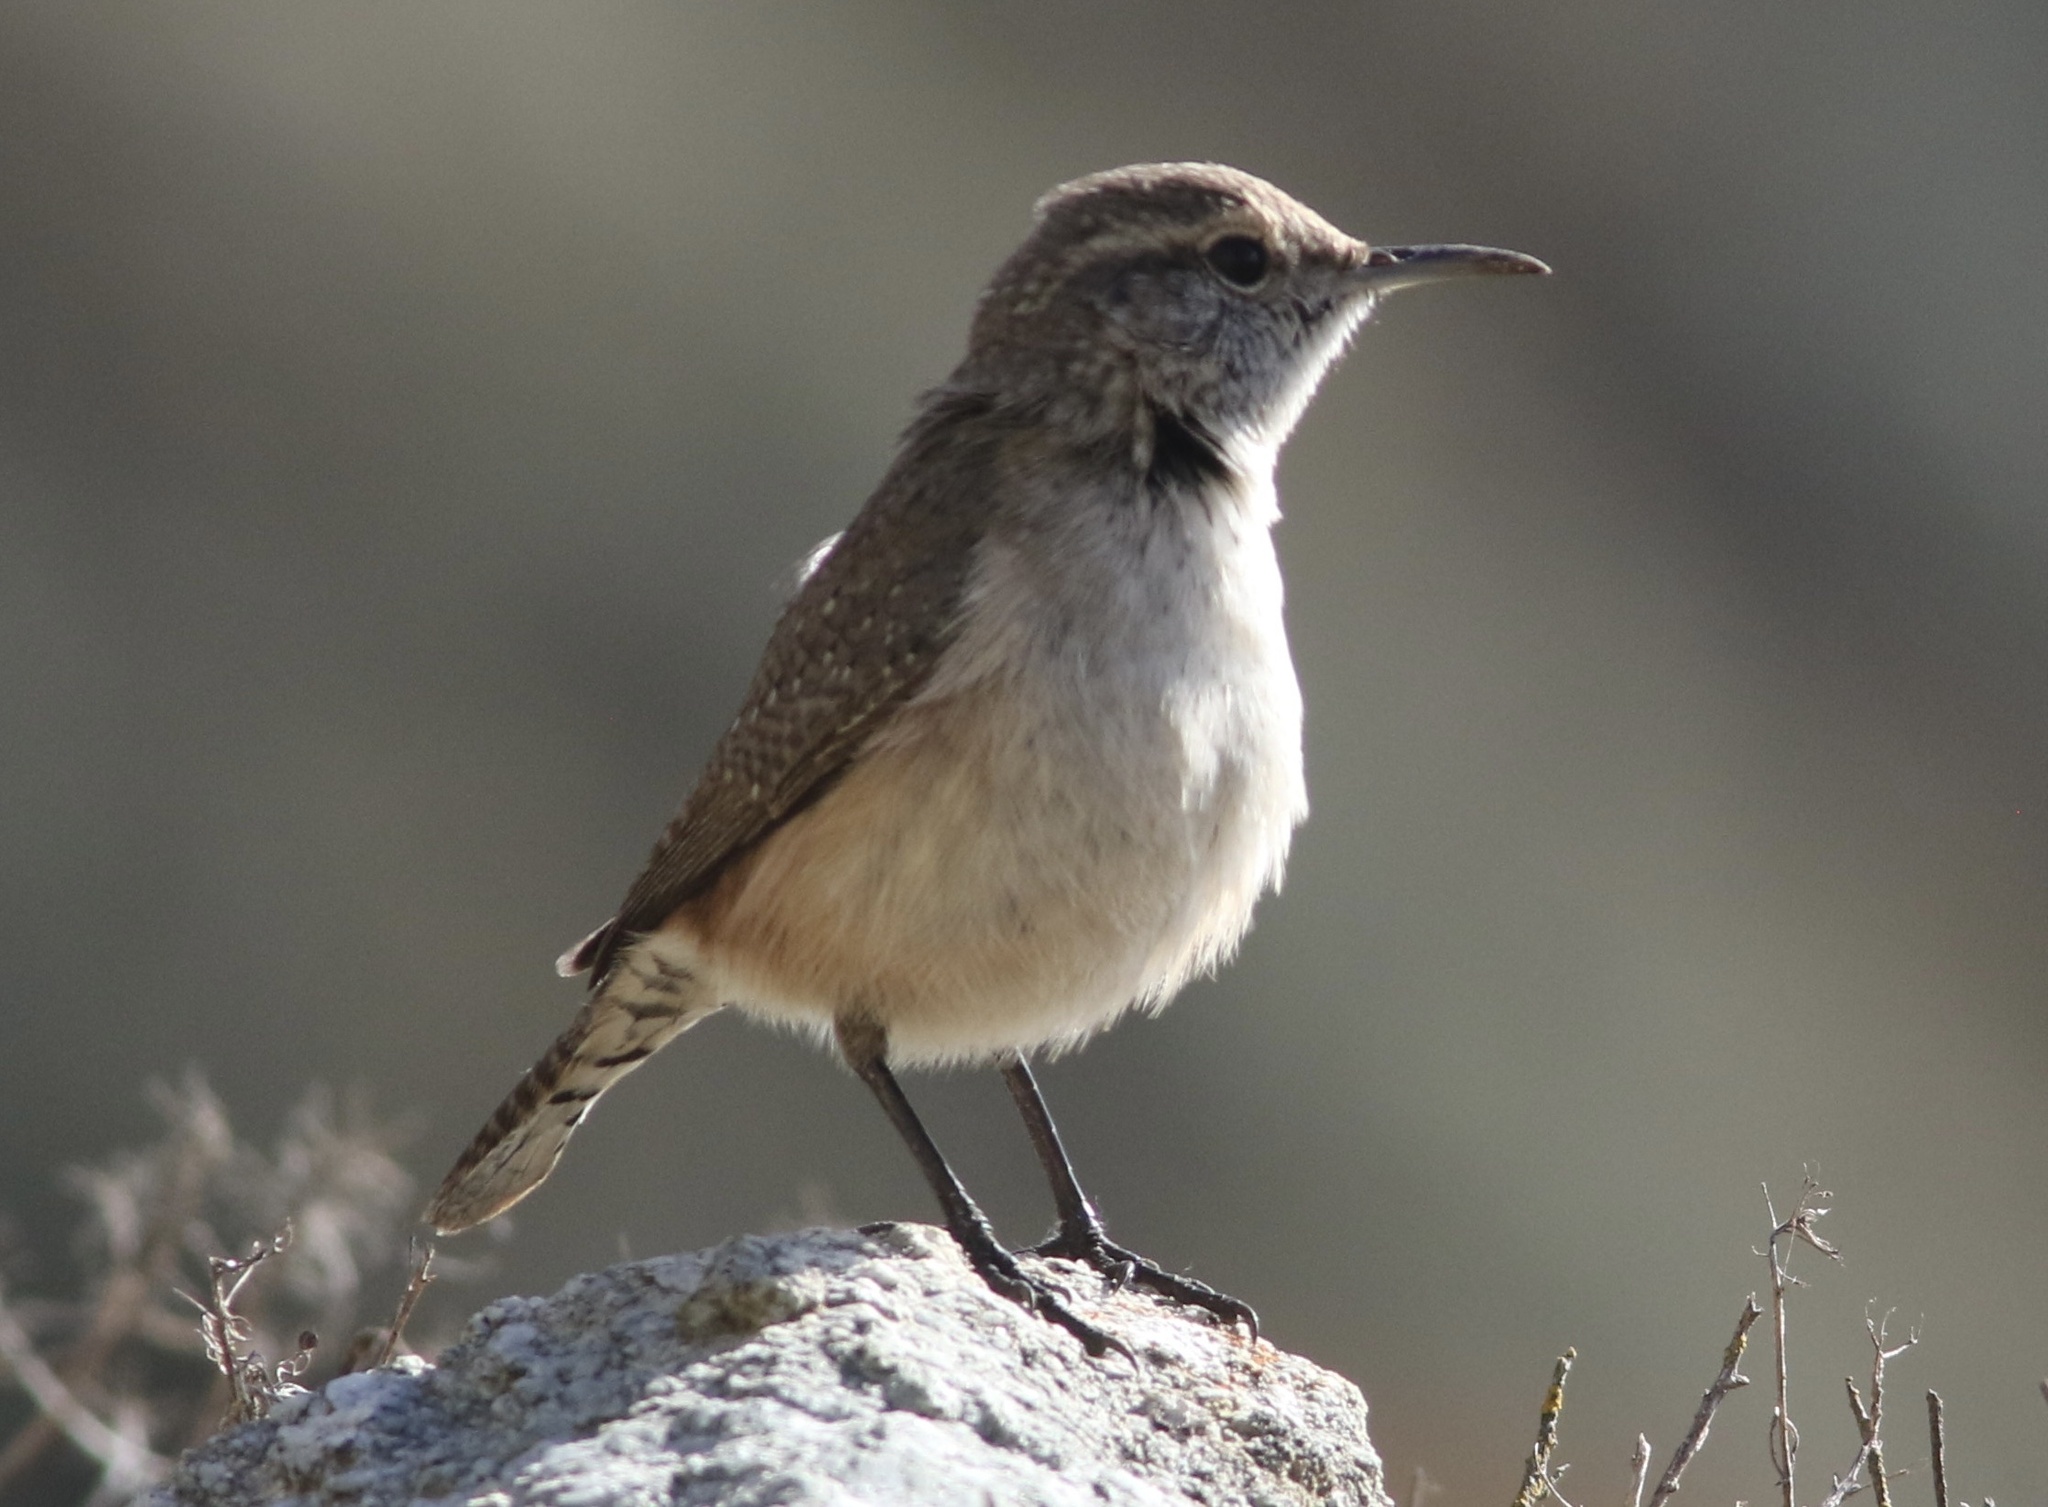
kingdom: Animalia
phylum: Chordata
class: Aves
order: Passeriformes
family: Troglodytidae
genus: Salpinctes
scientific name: Salpinctes obsoletus
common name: Rock wren
